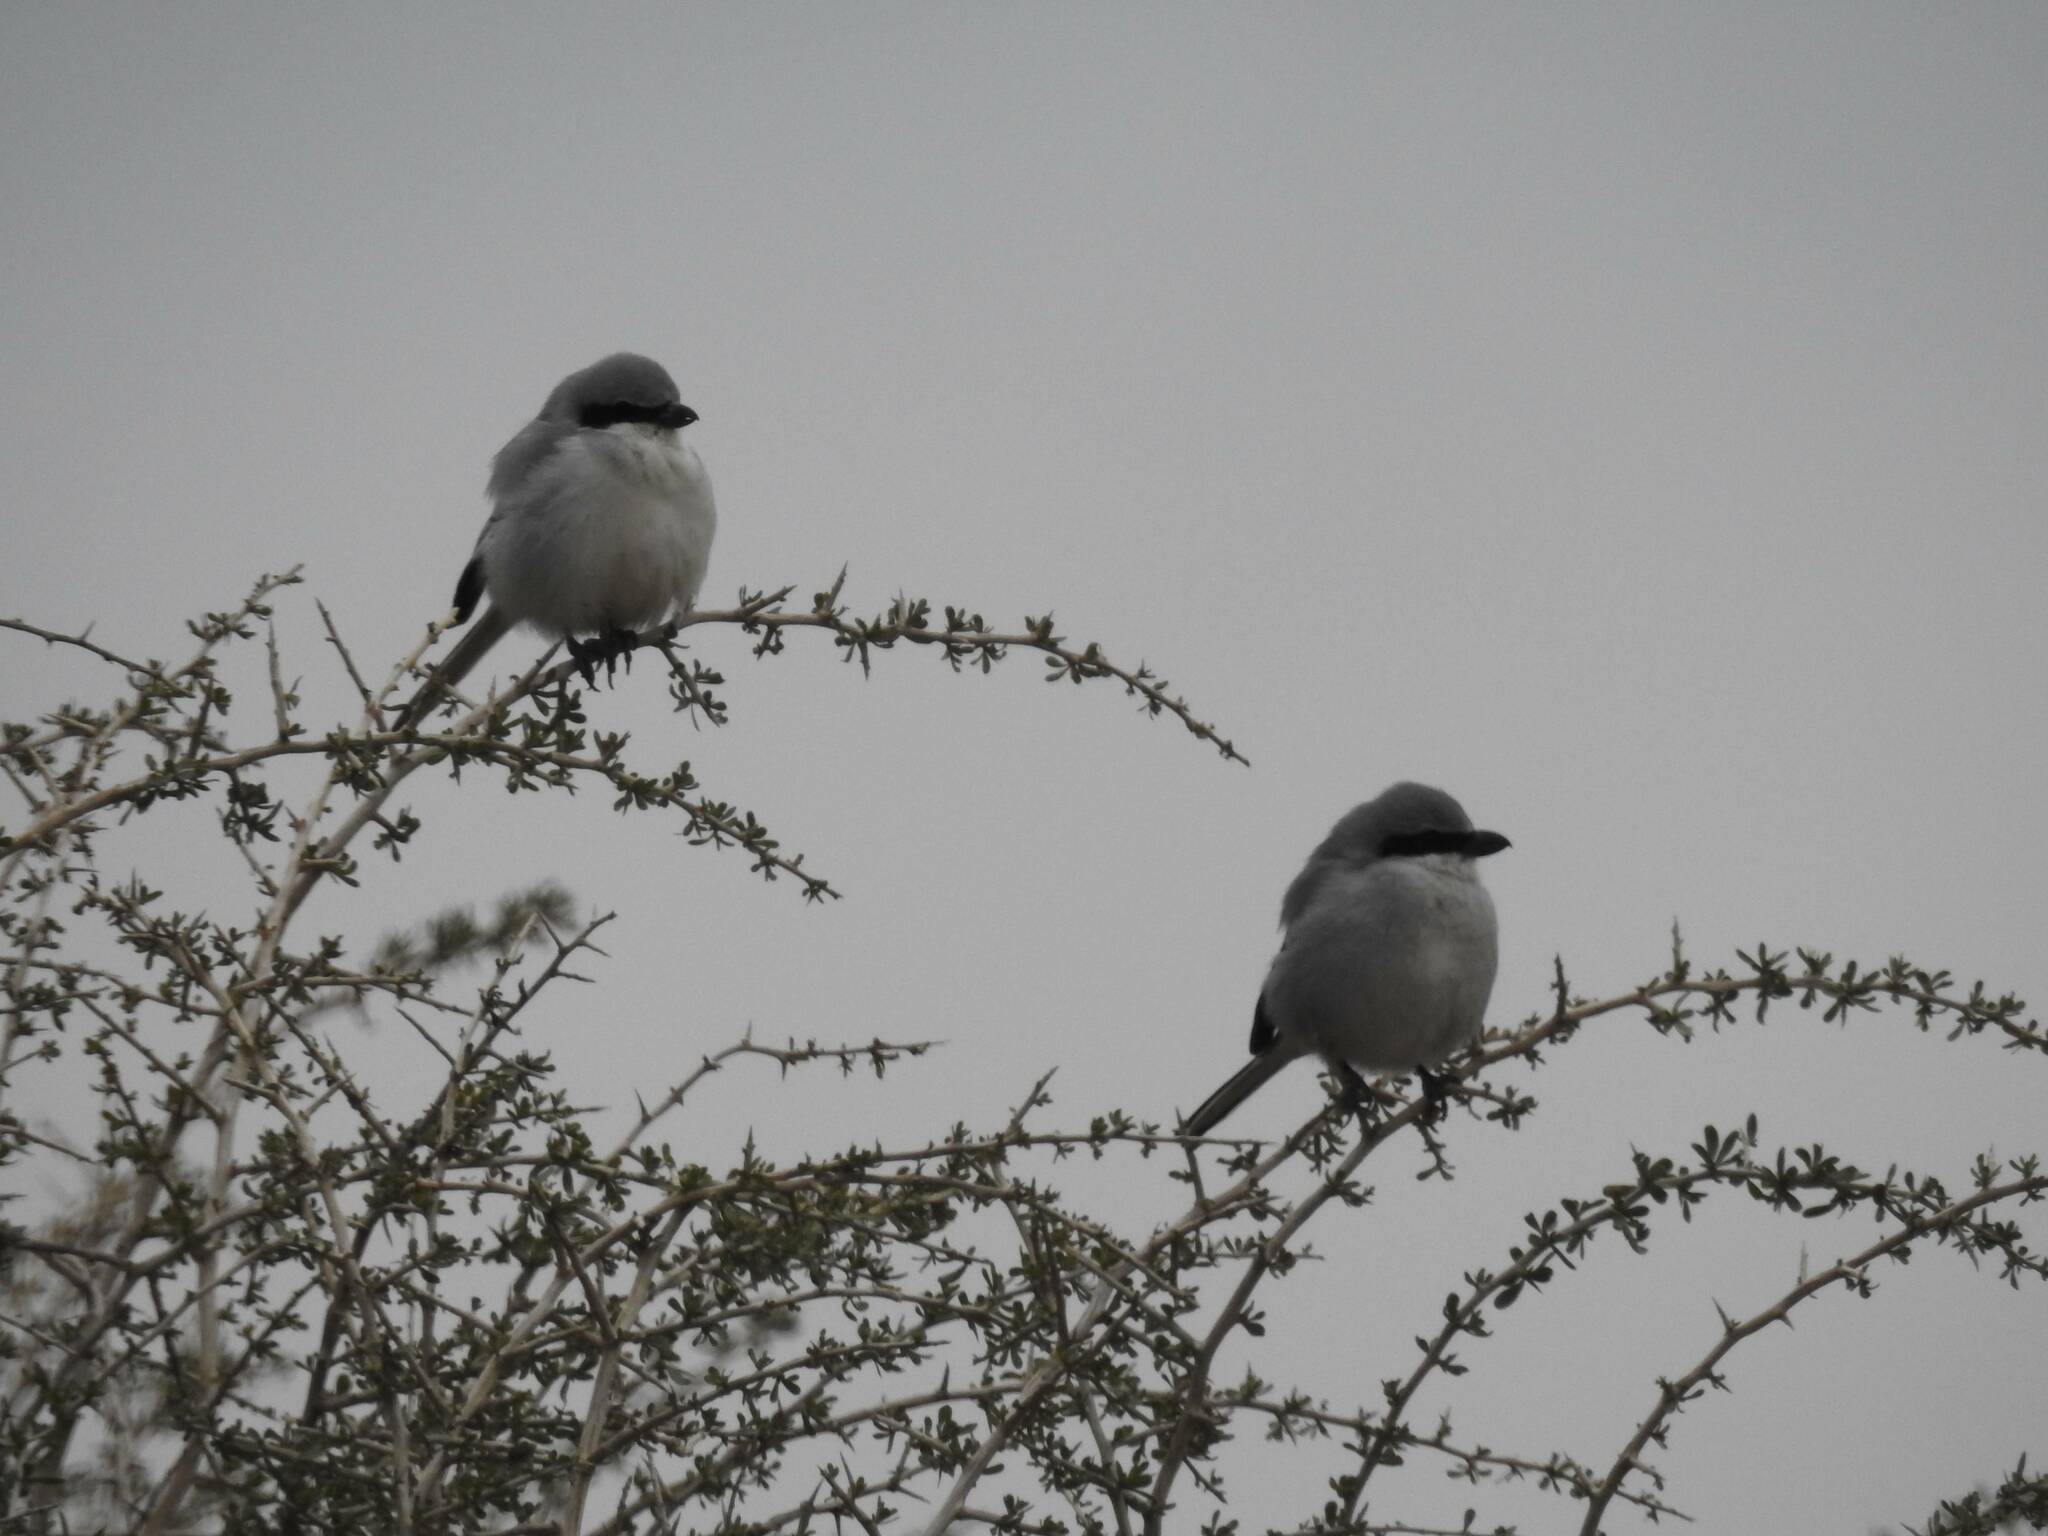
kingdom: Animalia
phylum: Chordata
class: Aves
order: Passeriformes
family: Laniidae
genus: Lanius
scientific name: Lanius excubitor
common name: Great grey shrike
